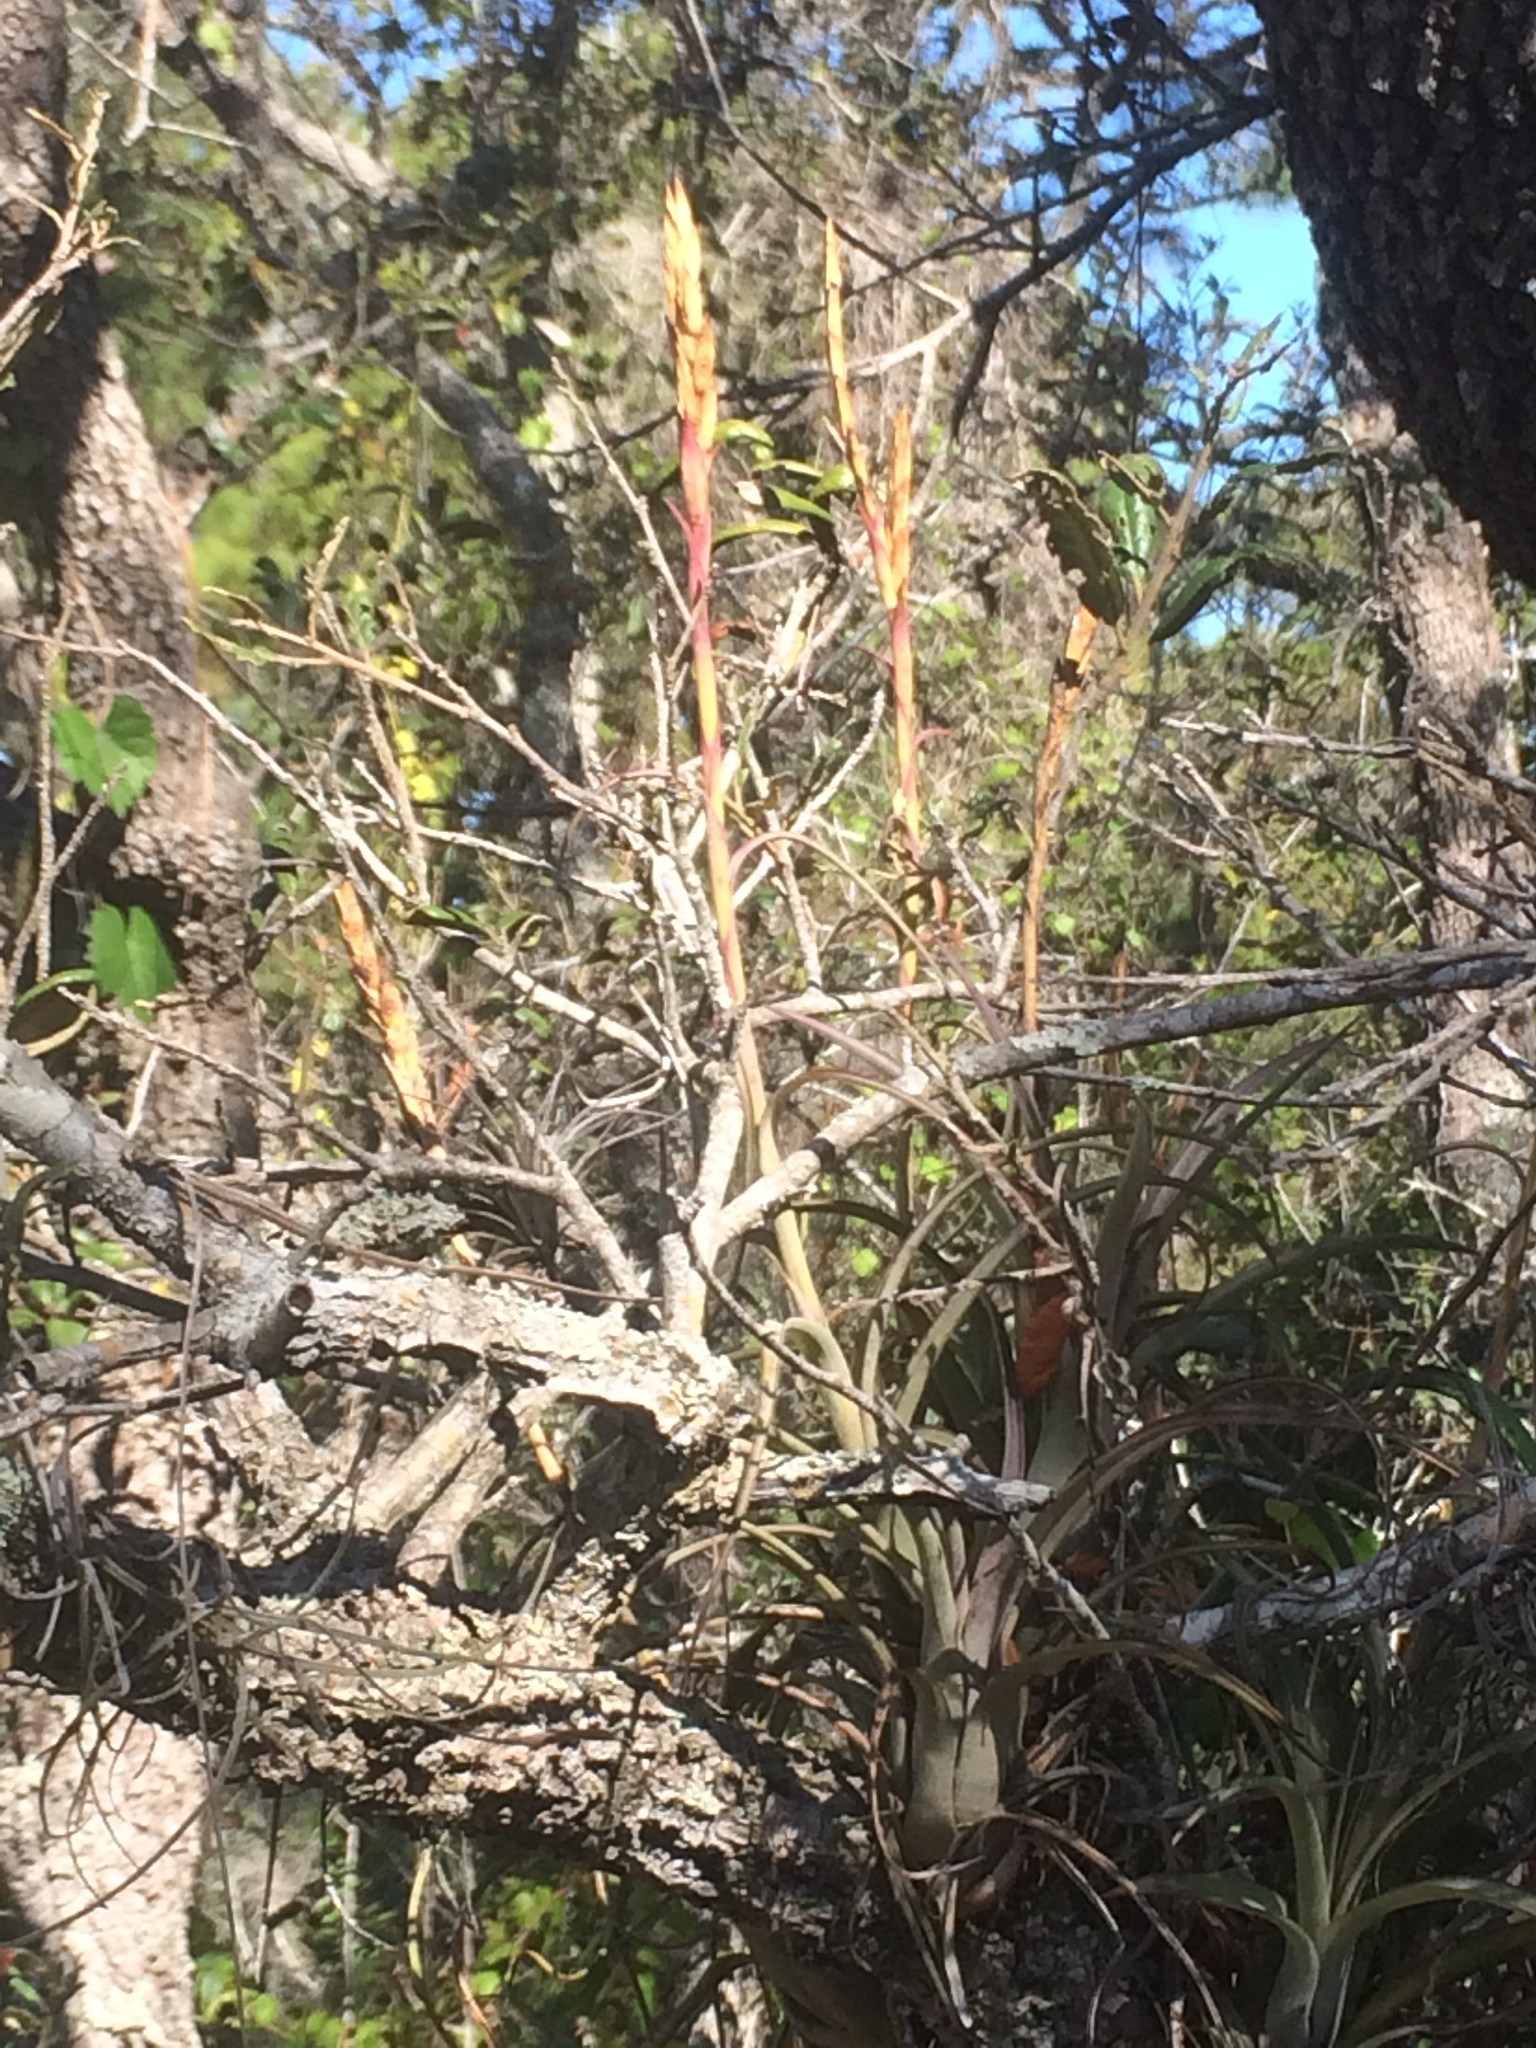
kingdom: Plantae
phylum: Tracheophyta
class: Liliopsida
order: Poales
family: Bromeliaceae
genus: Tillandsia
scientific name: Tillandsia balbisiana
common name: Northern needleleaf
